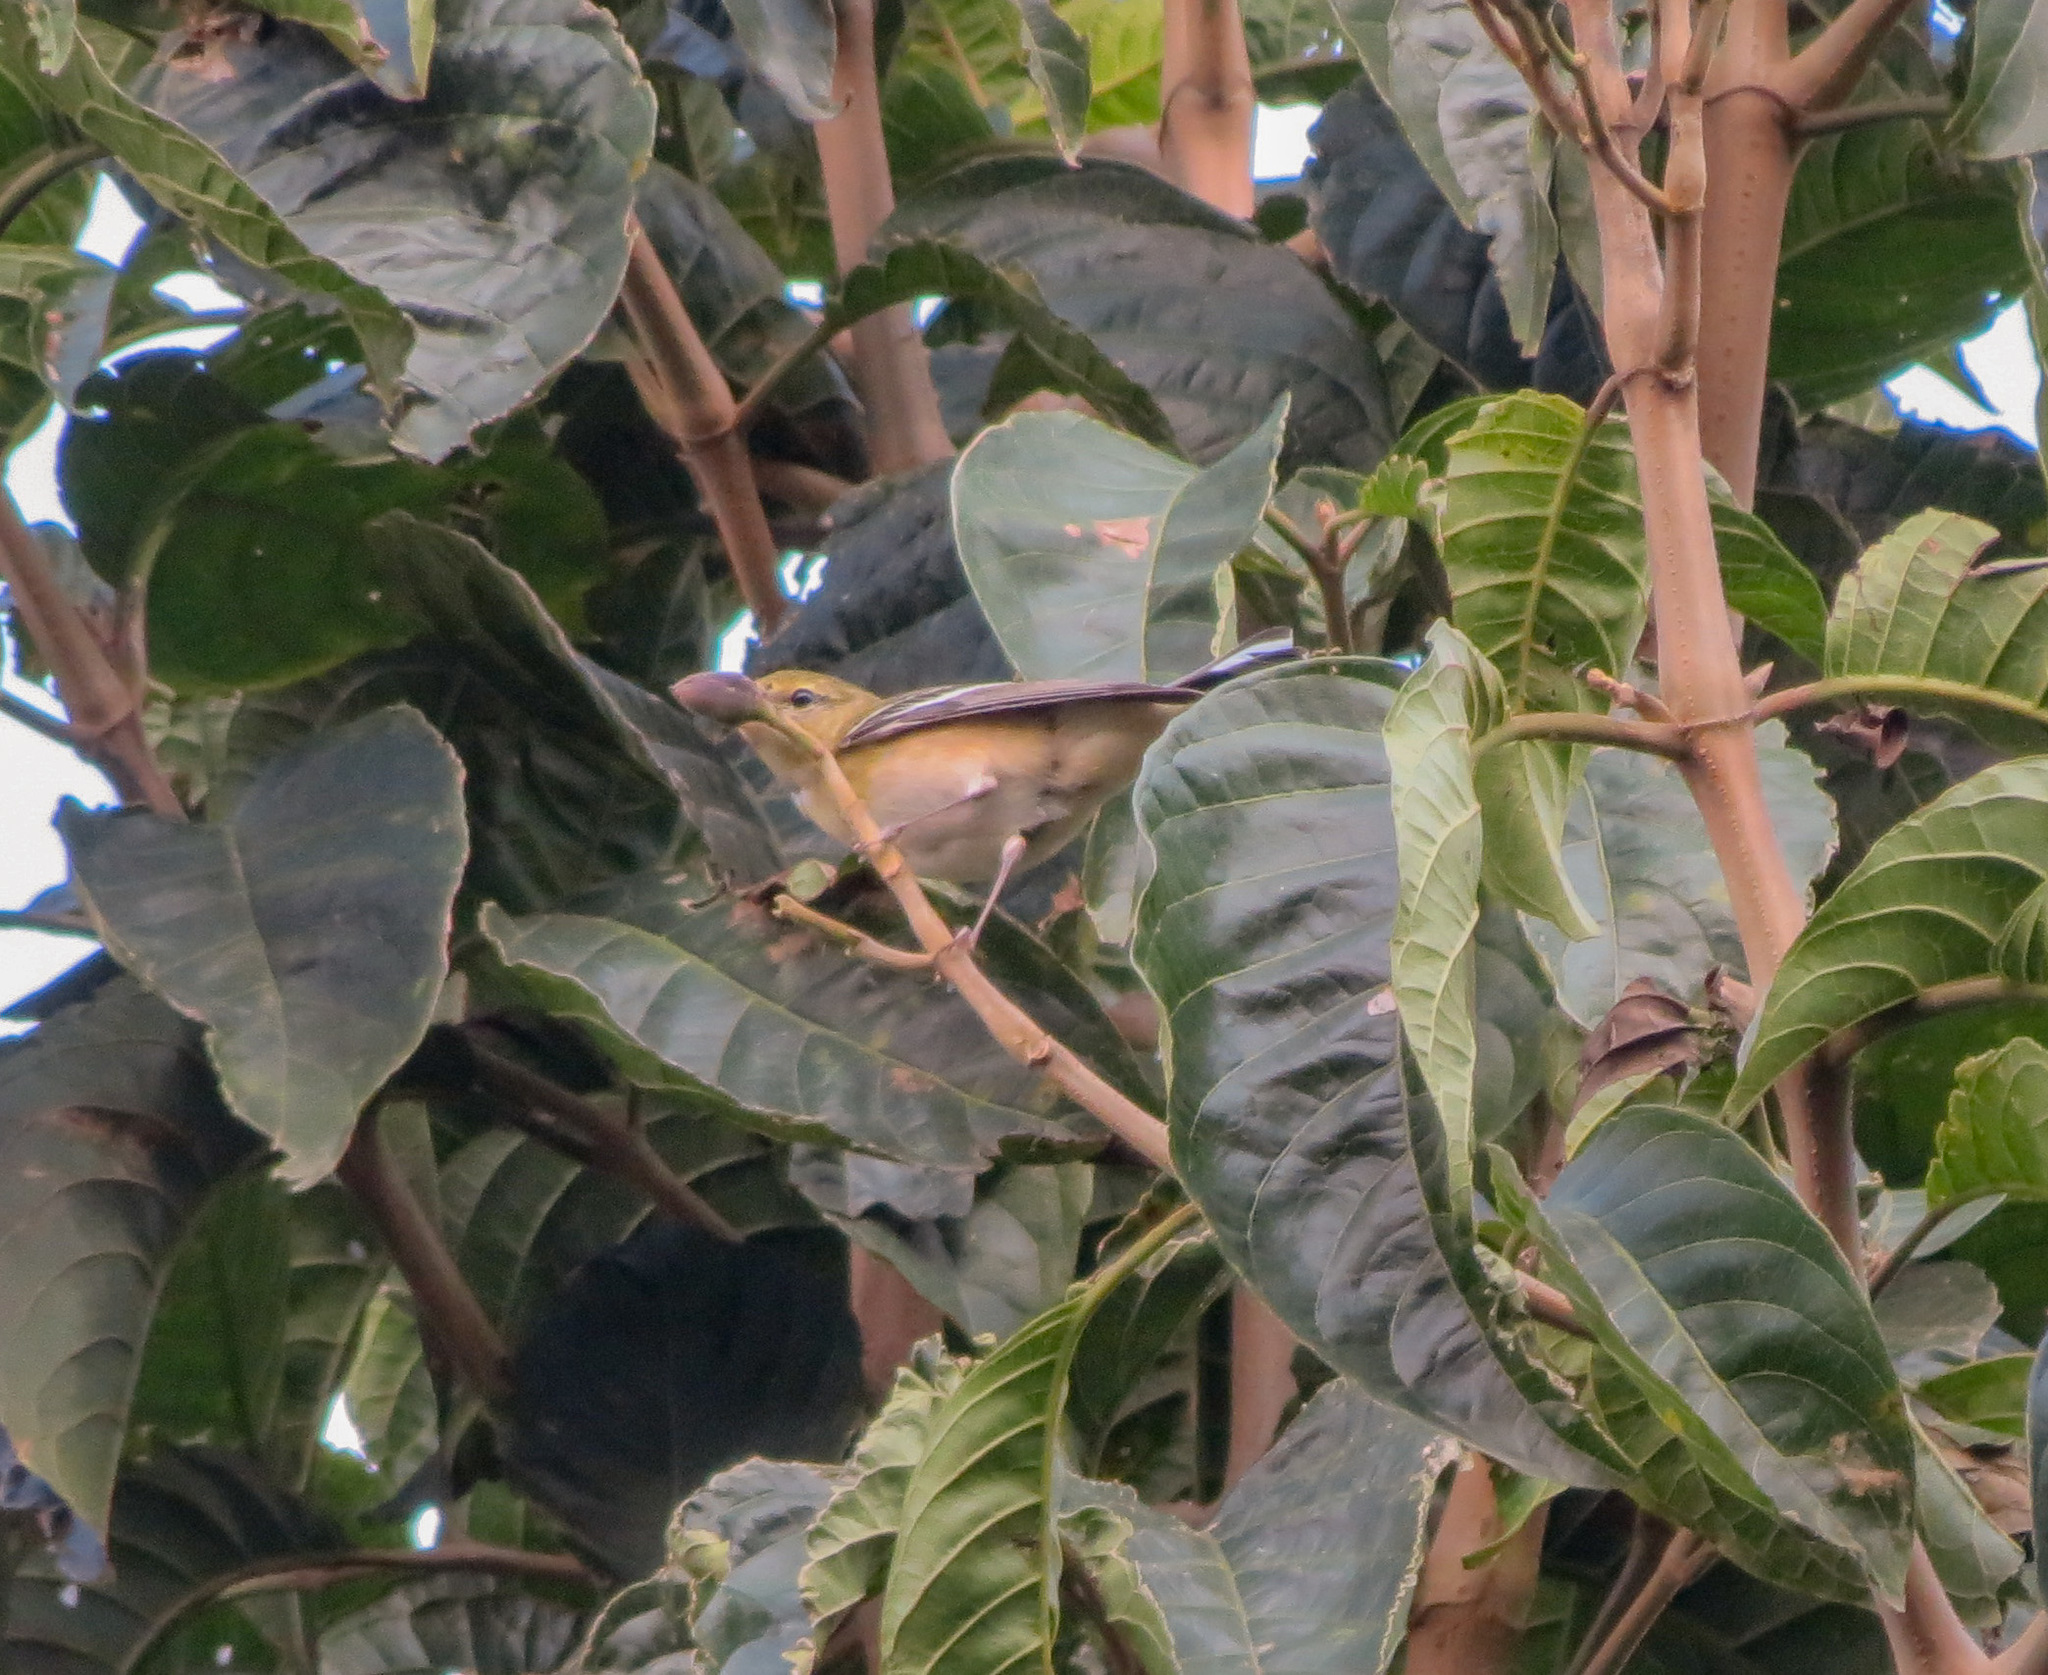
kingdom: Animalia
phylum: Chordata
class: Aves
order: Passeriformes
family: Parulidae
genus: Setophaga
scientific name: Setophaga castanea
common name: Bay-breasted warbler
